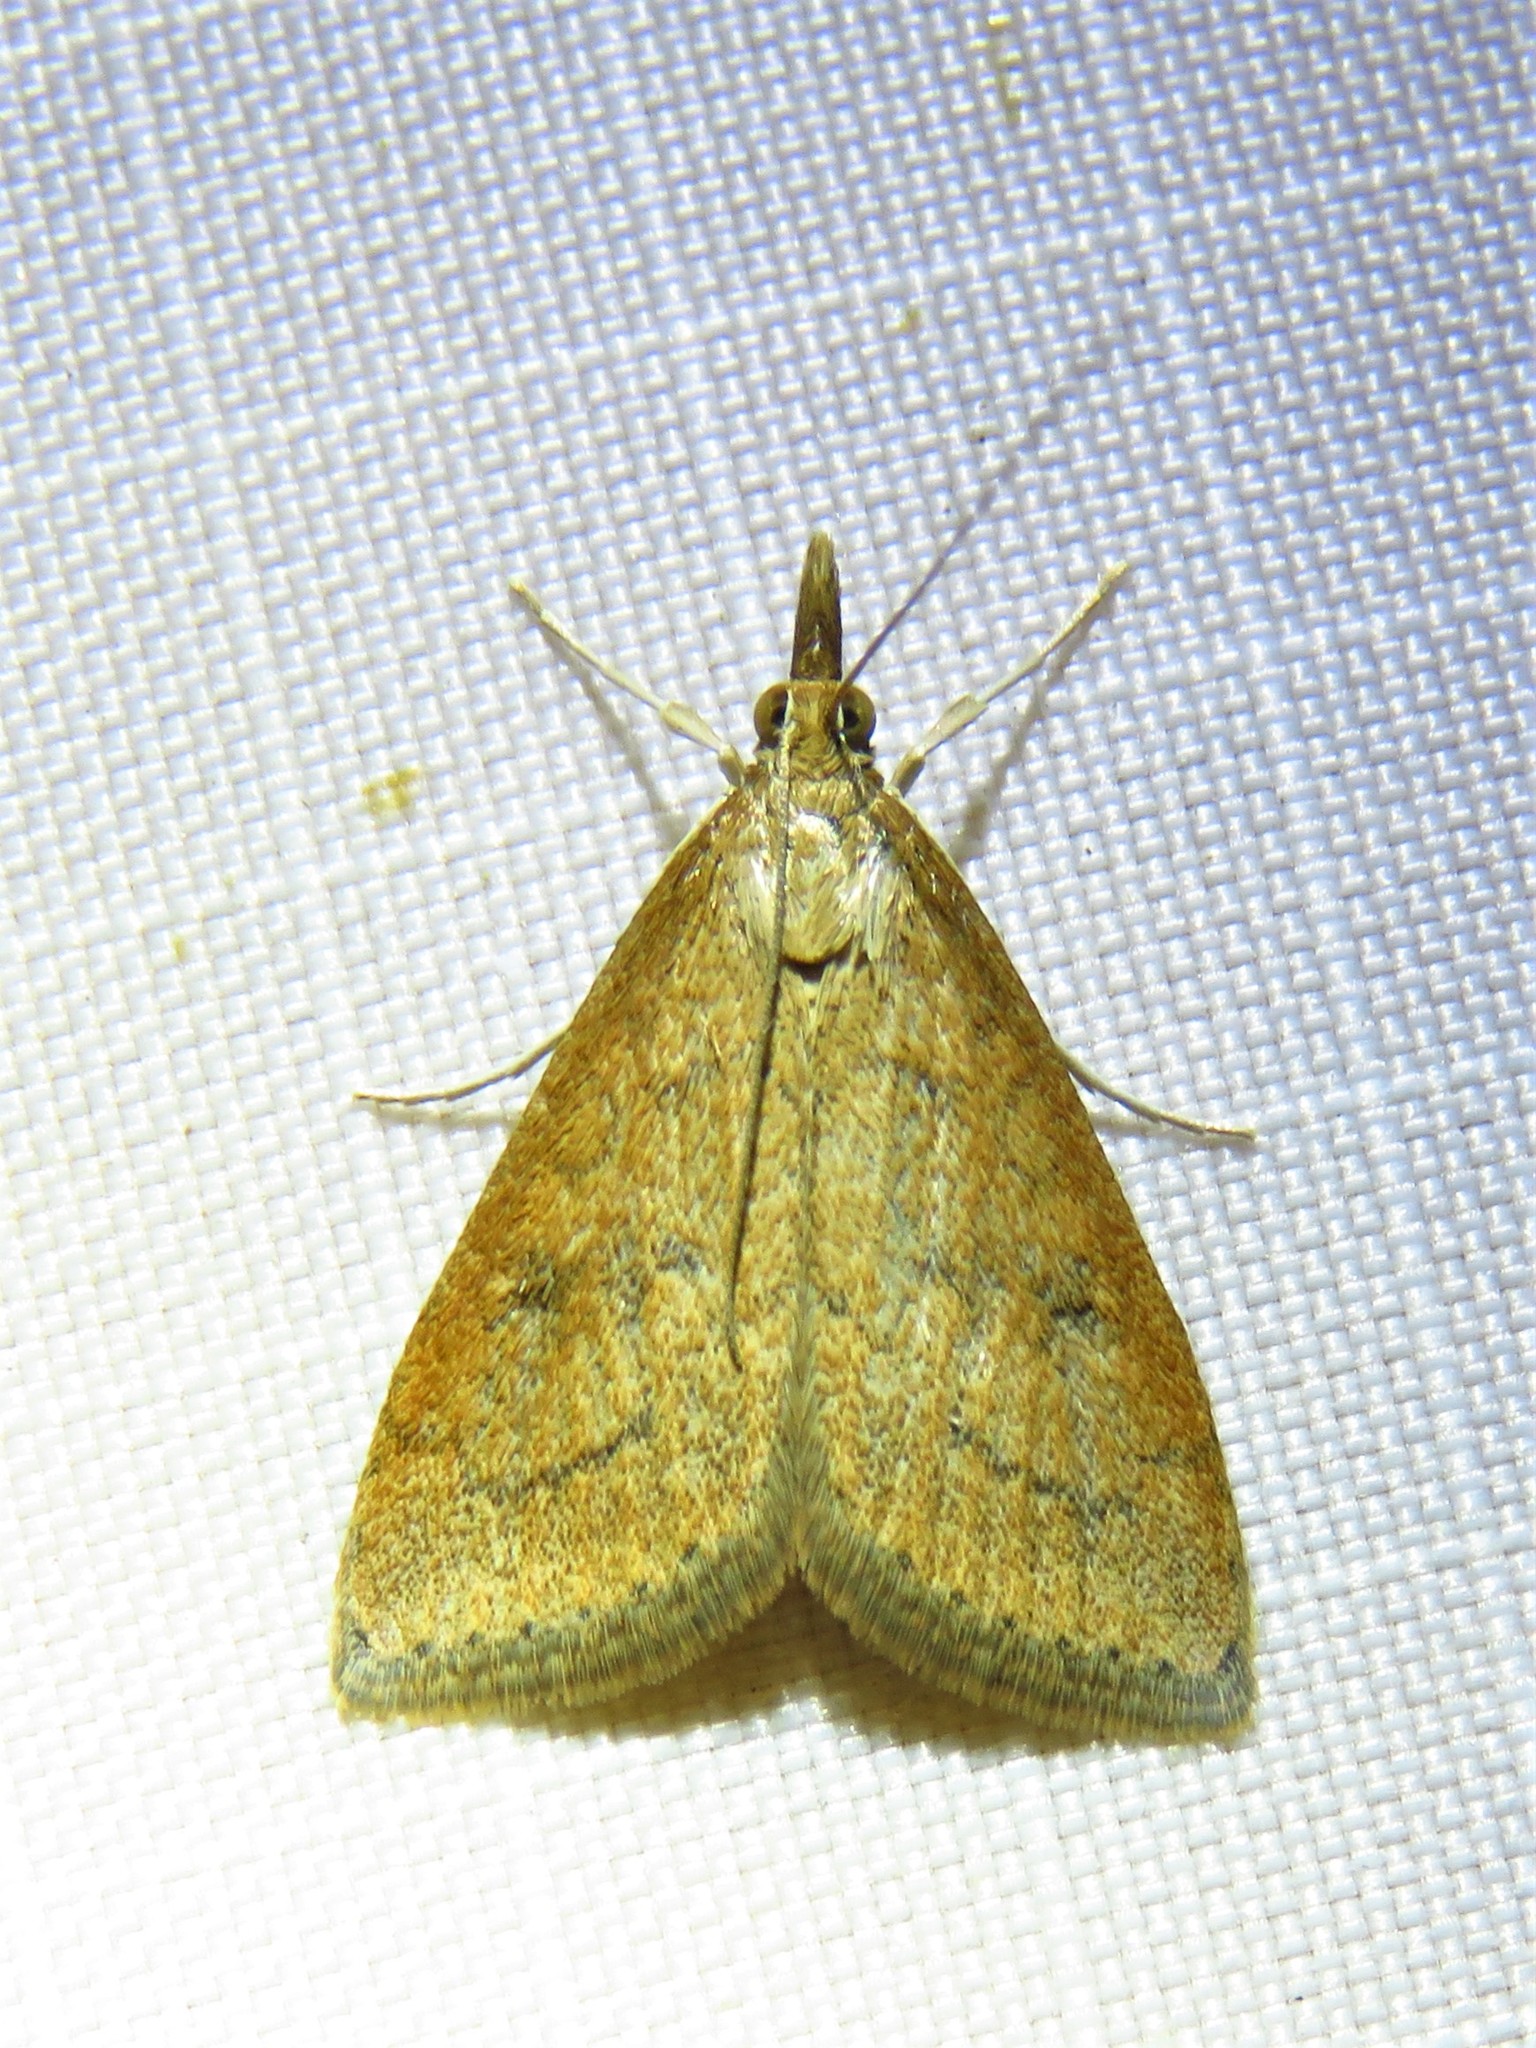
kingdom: Animalia
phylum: Arthropoda
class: Insecta
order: Lepidoptera
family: Crambidae
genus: Udea
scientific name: Udea rubigalis
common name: Celery leaftier moth
